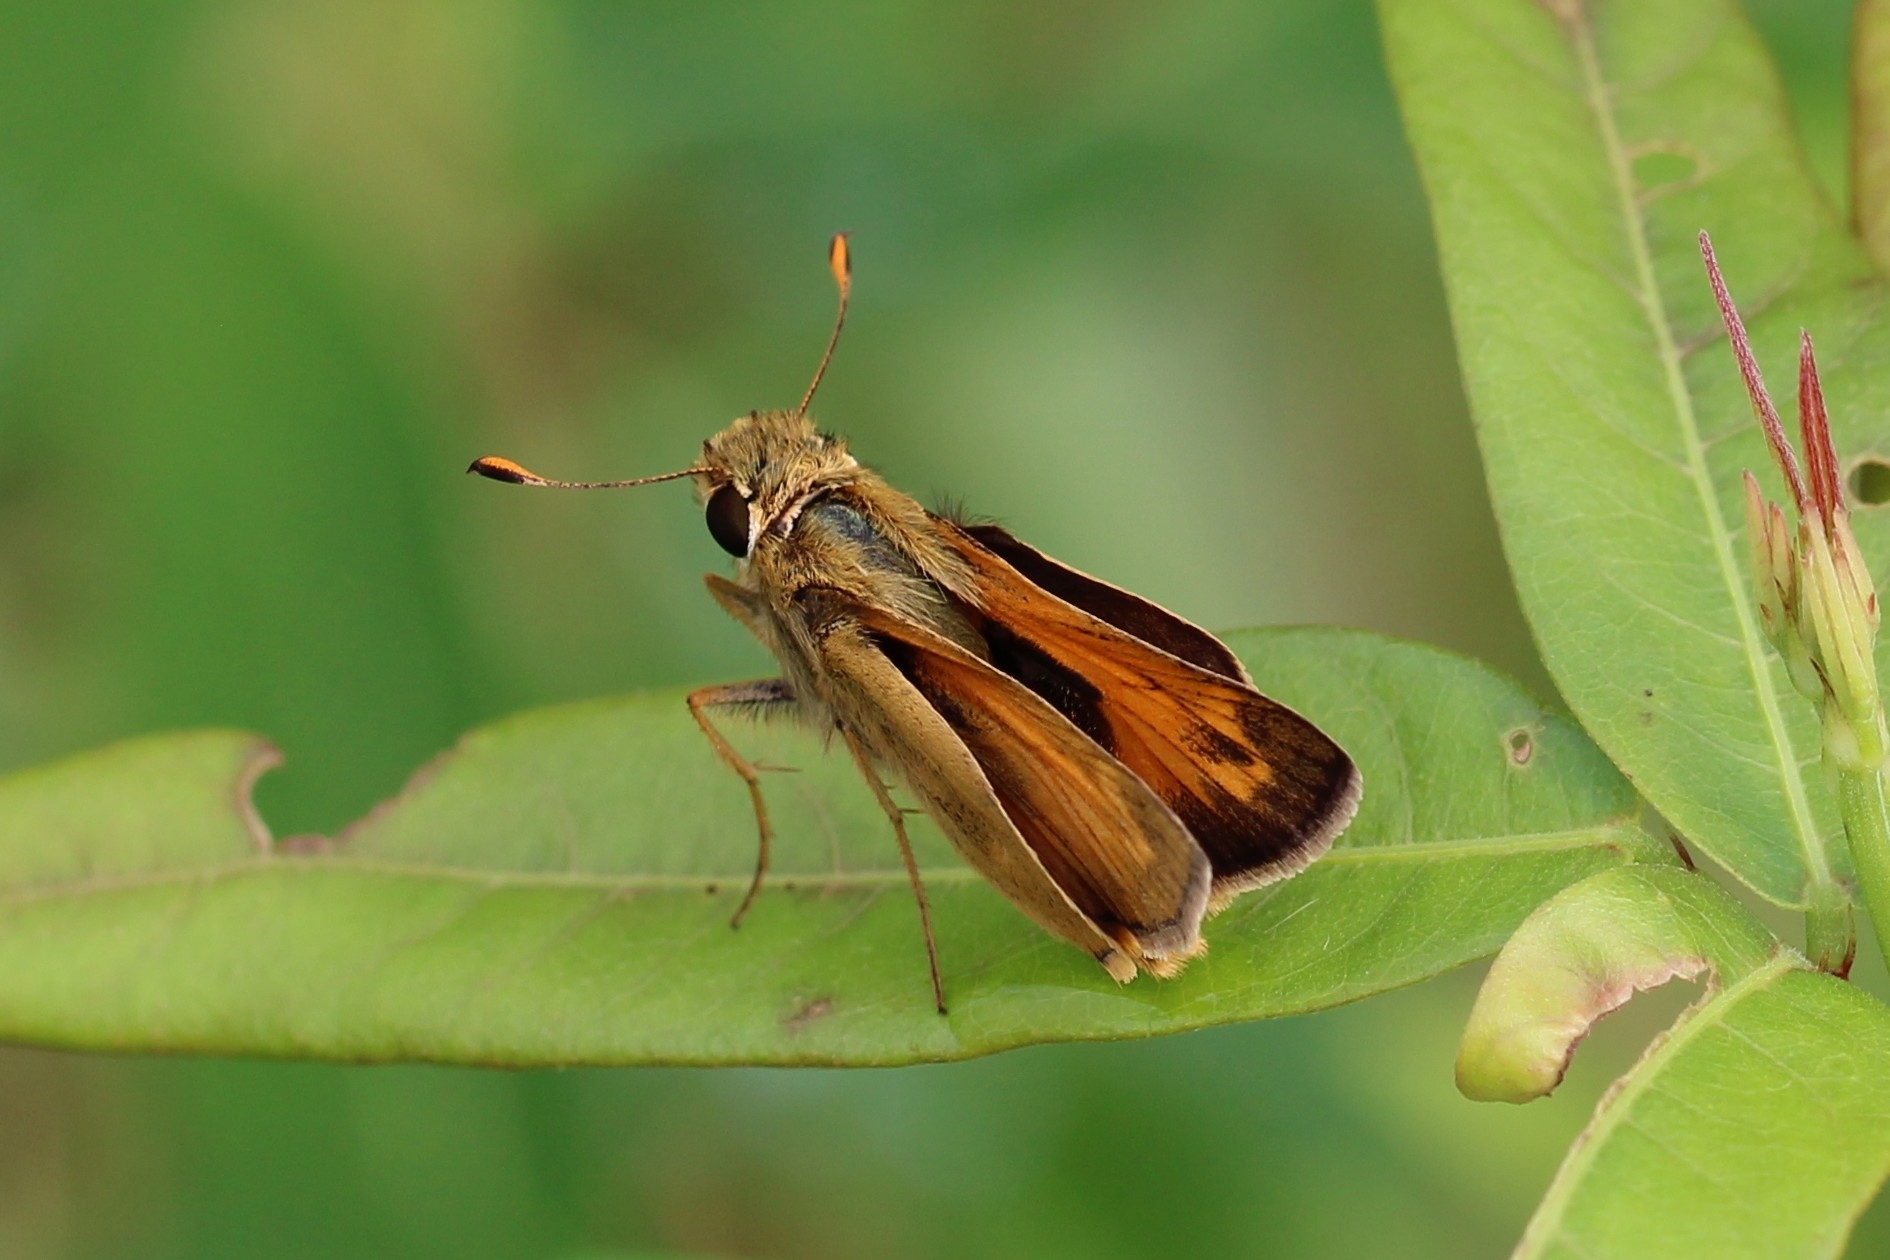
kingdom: Animalia
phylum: Arthropoda
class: Insecta
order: Lepidoptera
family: Hesperiidae
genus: Atalopedes
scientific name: Atalopedes
